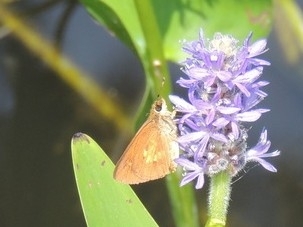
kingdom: Animalia
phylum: Arthropoda
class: Insecta
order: Lepidoptera
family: Hesperiidae
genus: Poanes
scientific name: Poanes viator
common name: Broad-winged skipper
